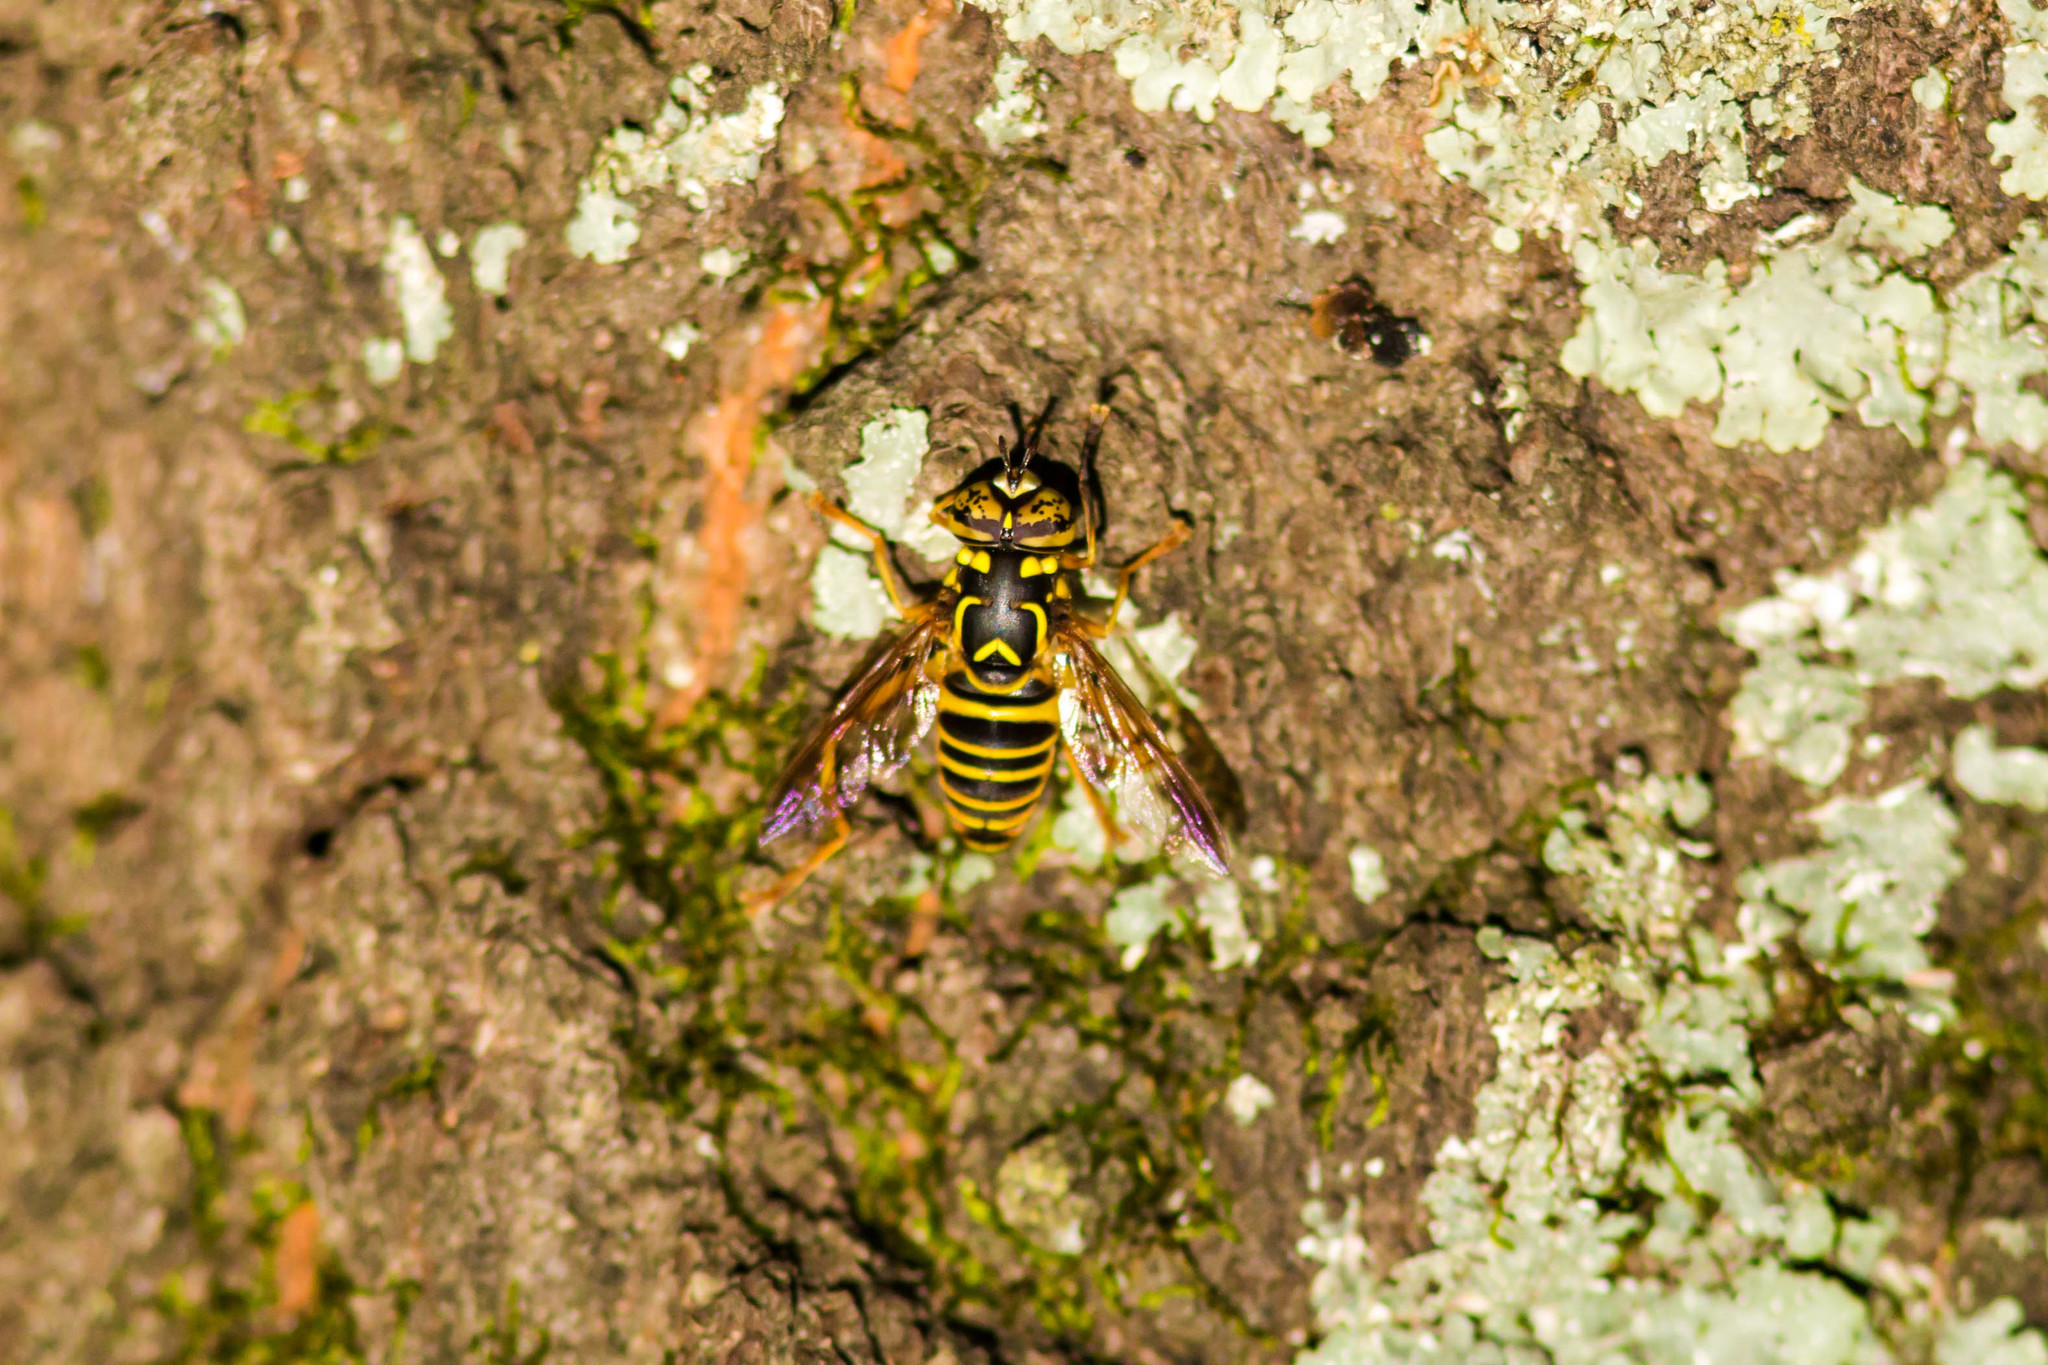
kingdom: Animalia
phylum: Arthropoda
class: Insecta
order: Diptera
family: Syrphidae
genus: Spilomyia
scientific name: Spilomyia longicornis
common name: Eastern hornet fly
